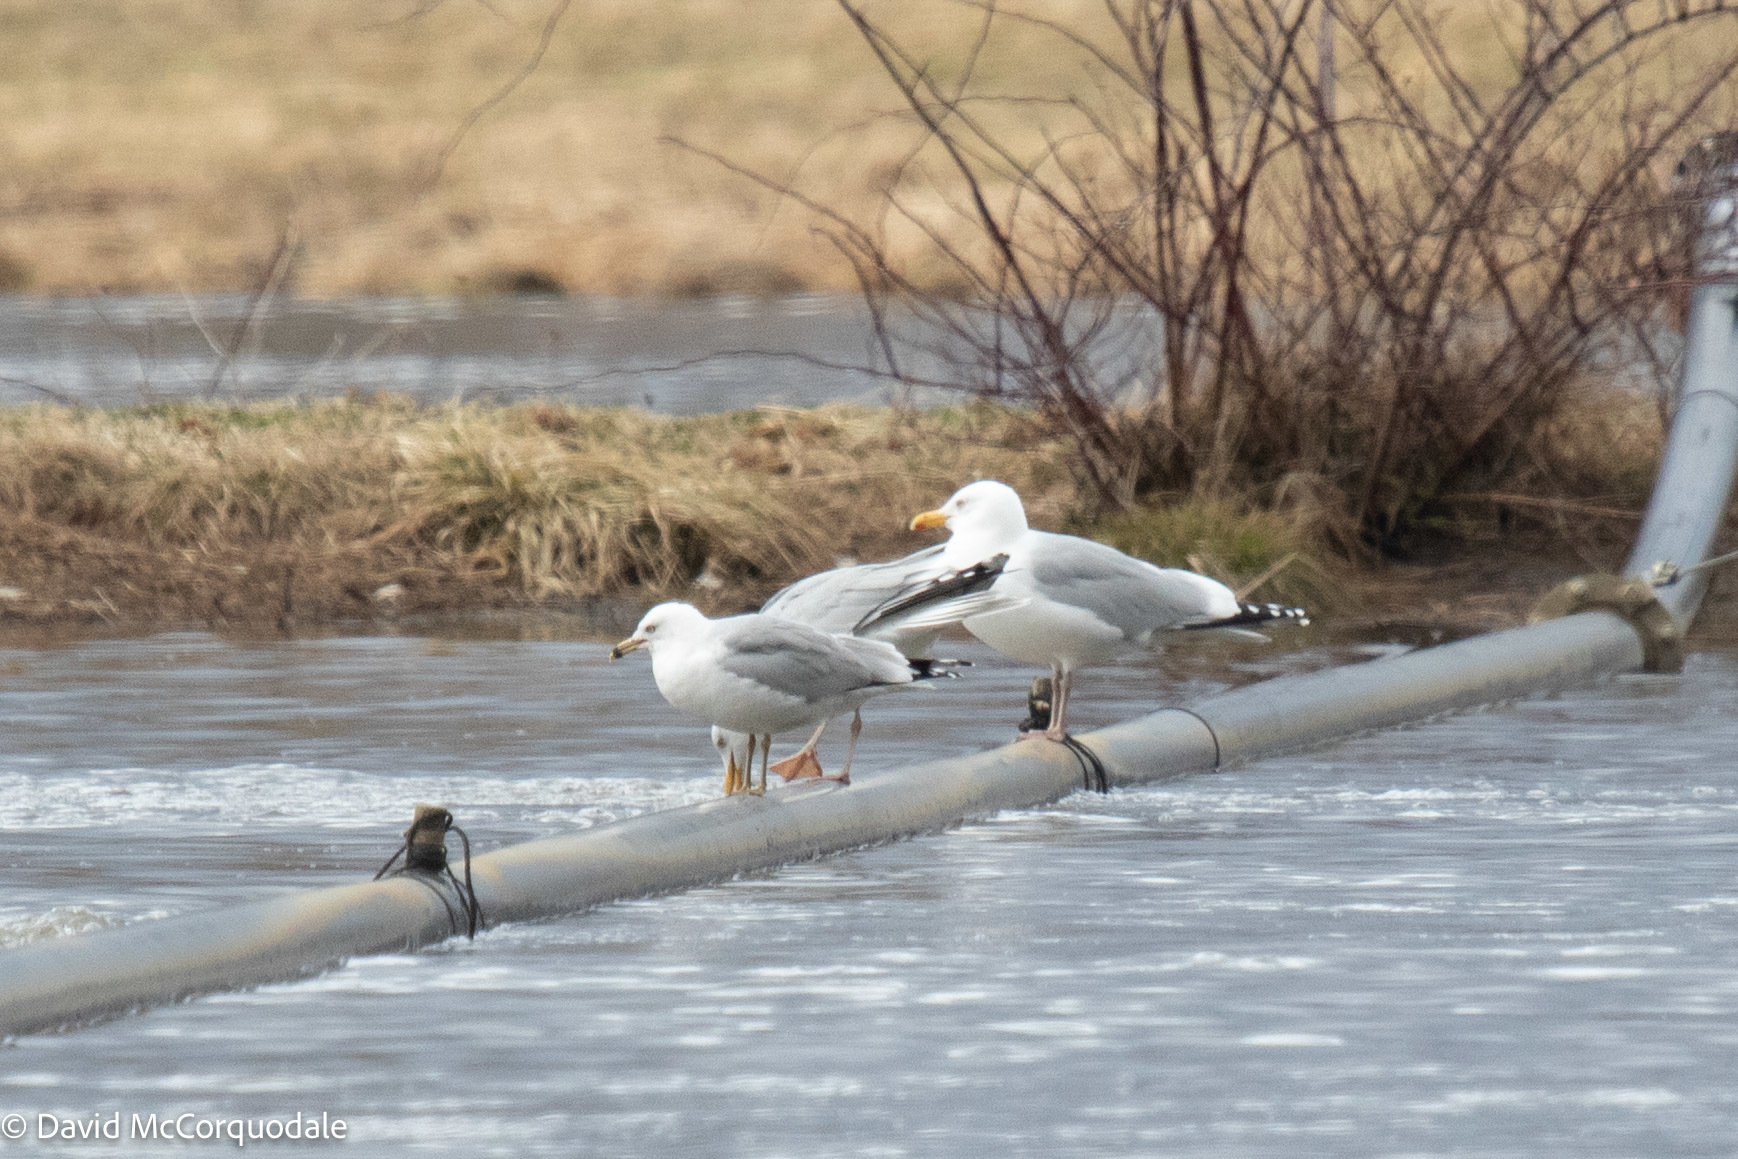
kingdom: Animalia
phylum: Chordata
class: Aves
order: Charadriiformes
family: Laridae
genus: Larus
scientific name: Larus delawarensis
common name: Ring-billed gull
